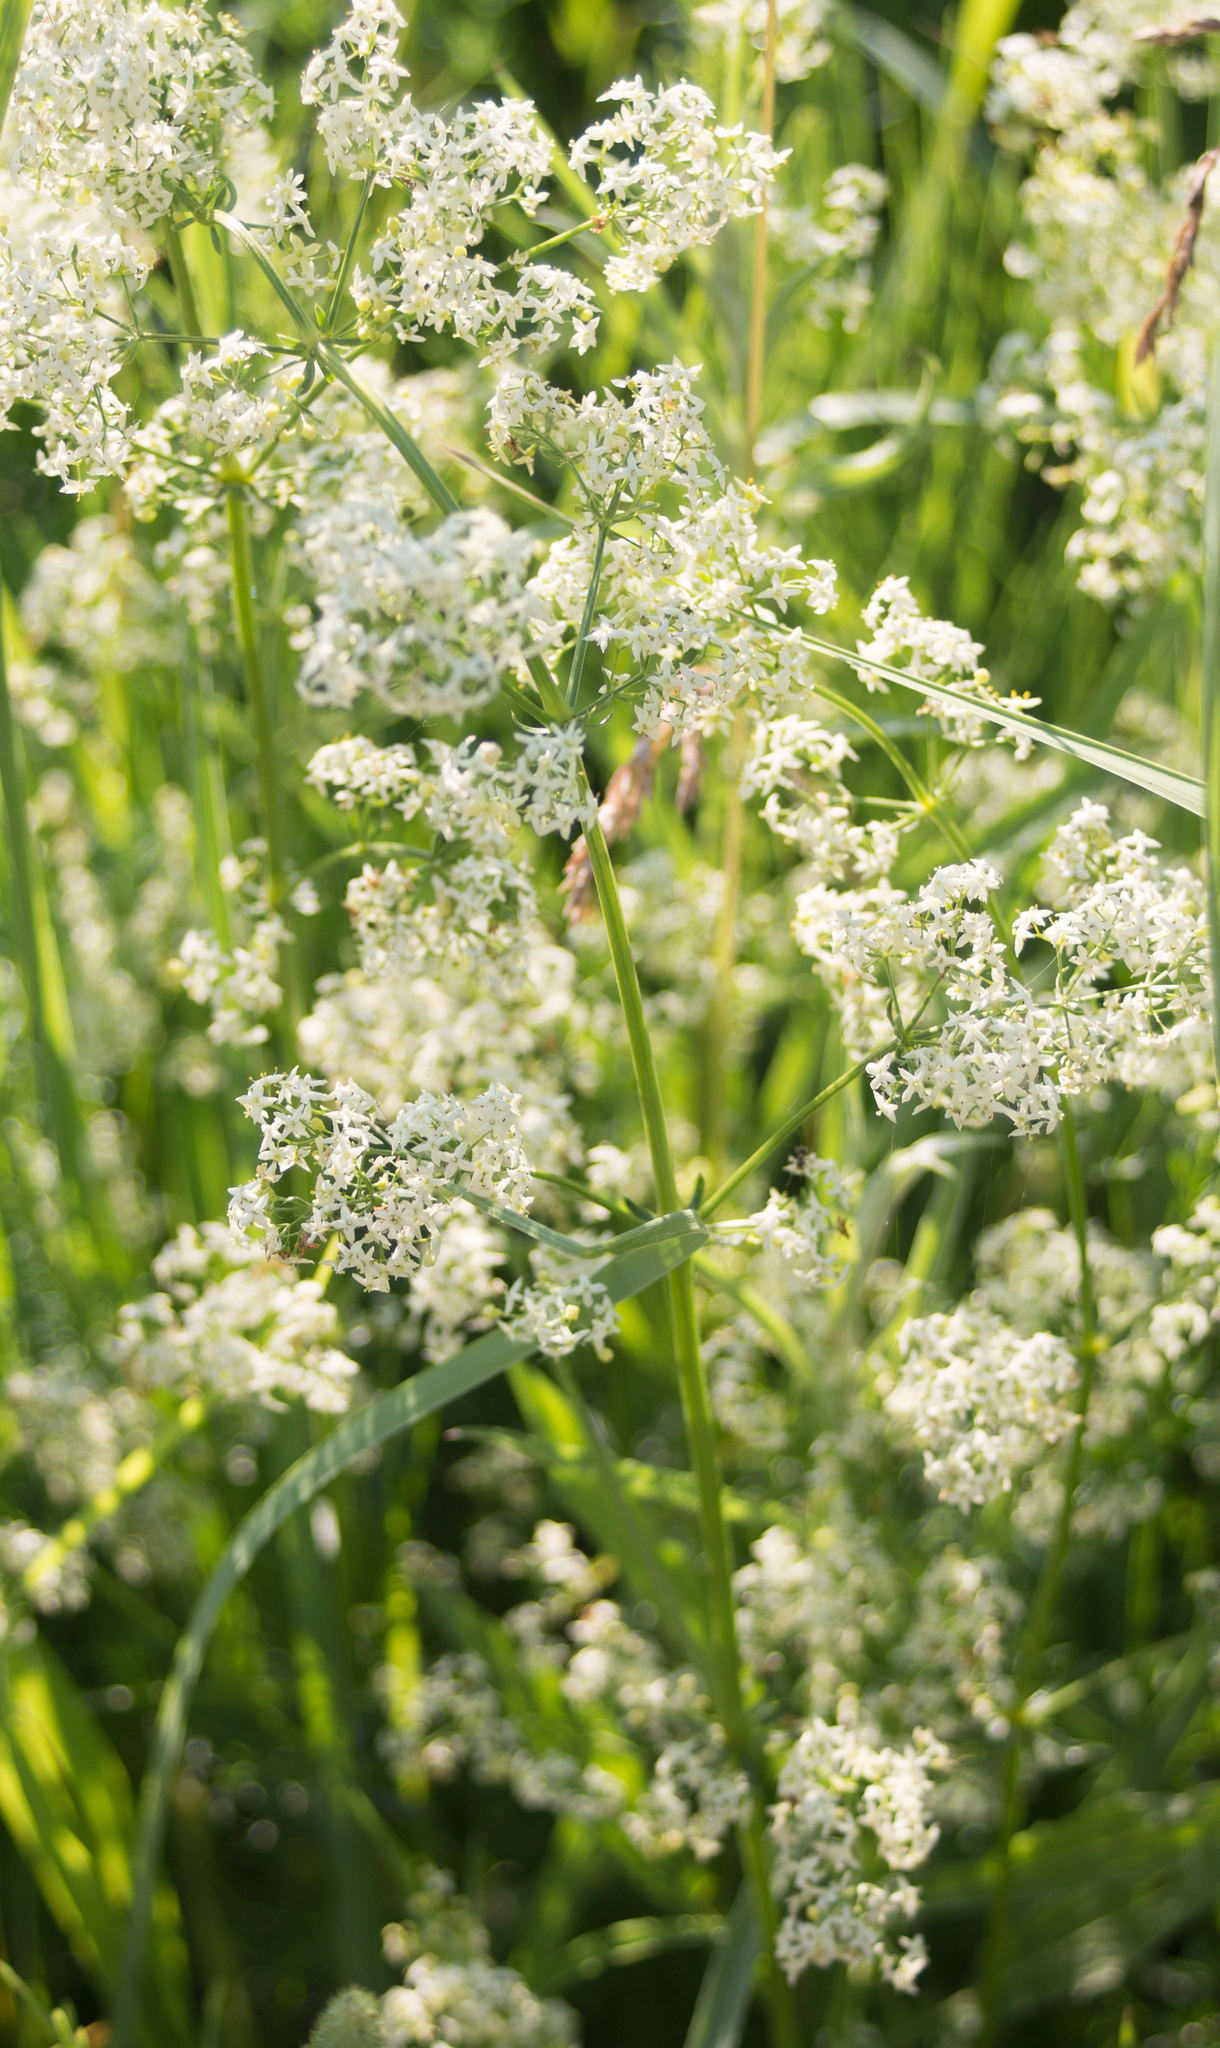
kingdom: Plantae
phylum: Tracheophyta
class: Magnoliopsida
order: Gentianales
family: Rubiaceae
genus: Galium
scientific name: Galium mollugo
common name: Hedge bedstraw
